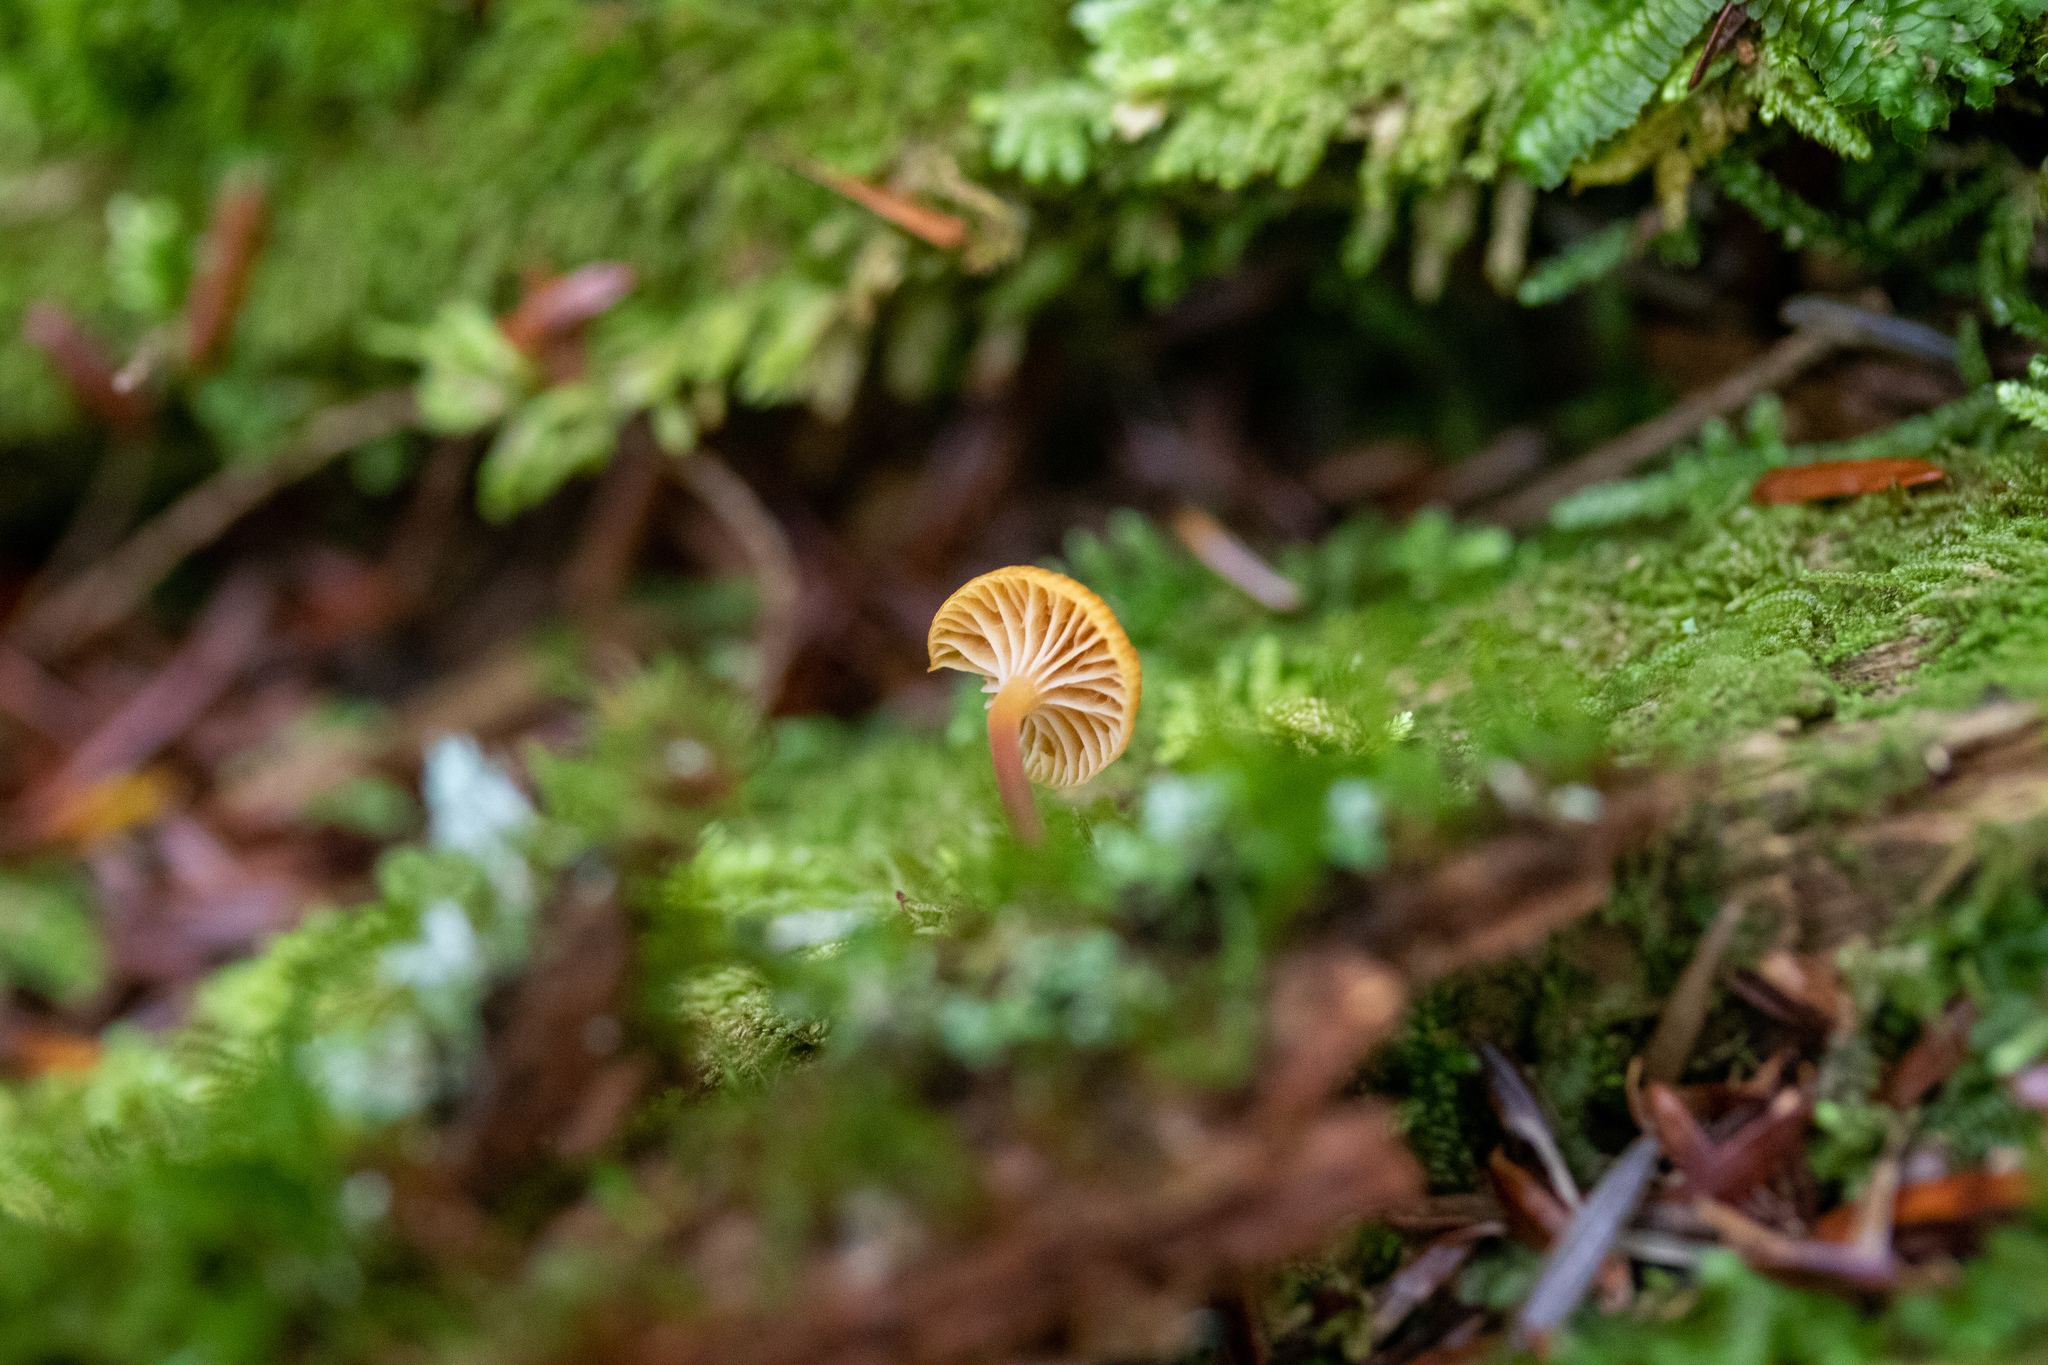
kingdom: Fungi
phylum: Basidiomycota
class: Agaricomycetes
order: Hymenochaetales
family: Rickenellaceae
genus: Rickenella
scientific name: Rickenella fibula
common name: Orange mosscap
